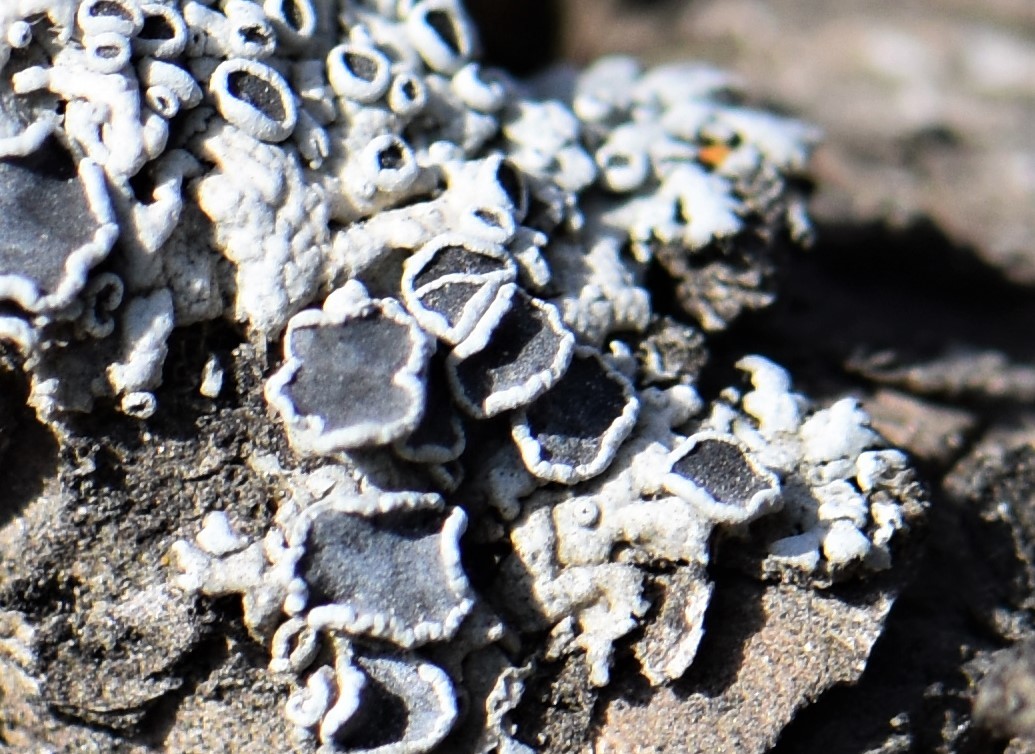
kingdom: Fungi
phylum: Ascomycota
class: Lecanoromycetes
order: Caliciales
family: Physciaceae
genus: Physcia
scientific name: Physcia aipolia
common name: Hoary rosette lichen
